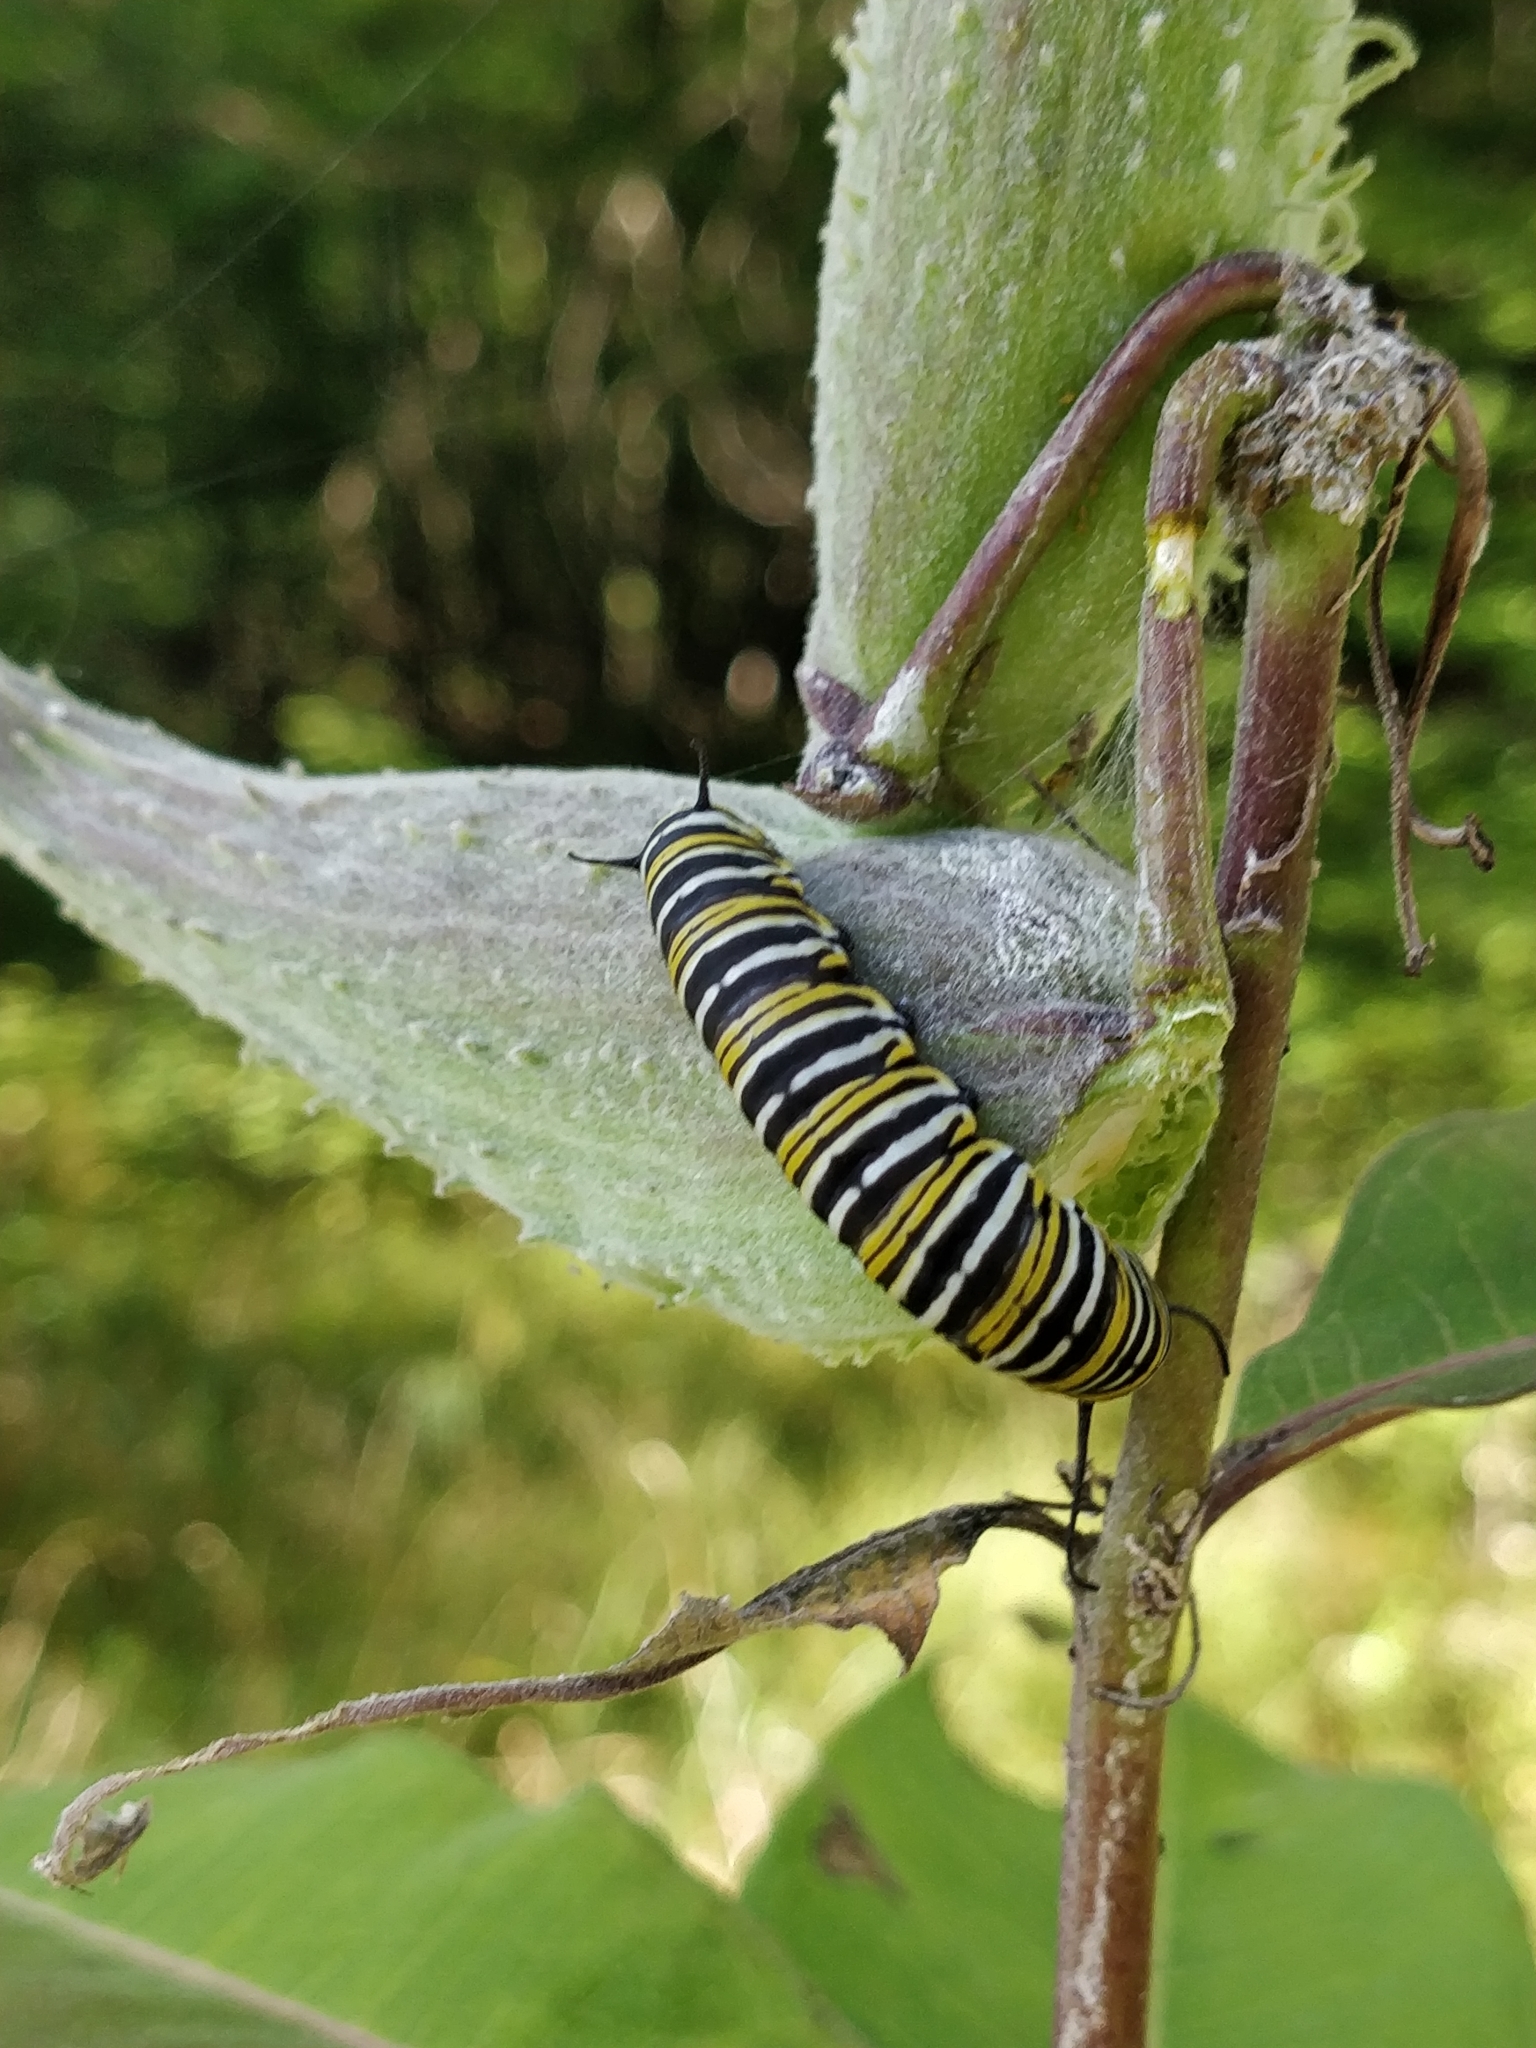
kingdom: Animalia
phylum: Arthropoda
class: Insecta
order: Lepidoptera
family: Nymphalidae
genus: Danaus
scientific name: Danaus plexippus
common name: Monarch
